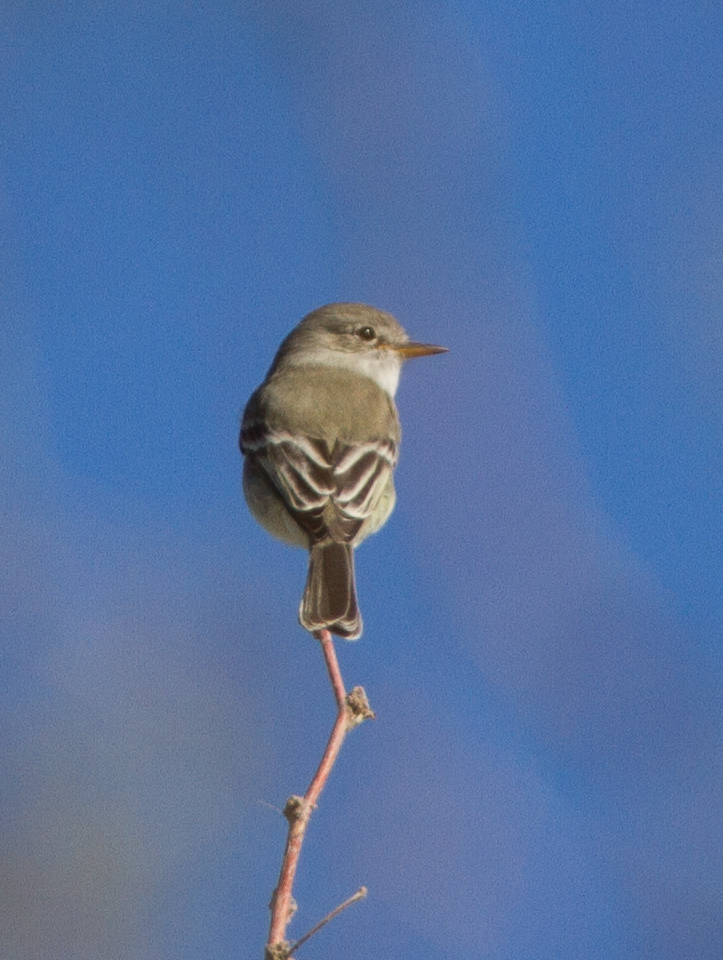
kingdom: Animalia
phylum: Chordata
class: Aves
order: Passeriformes
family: Tyrannidae
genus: Empidonax
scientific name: Empidonax wrightii
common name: Gray flycatcher
